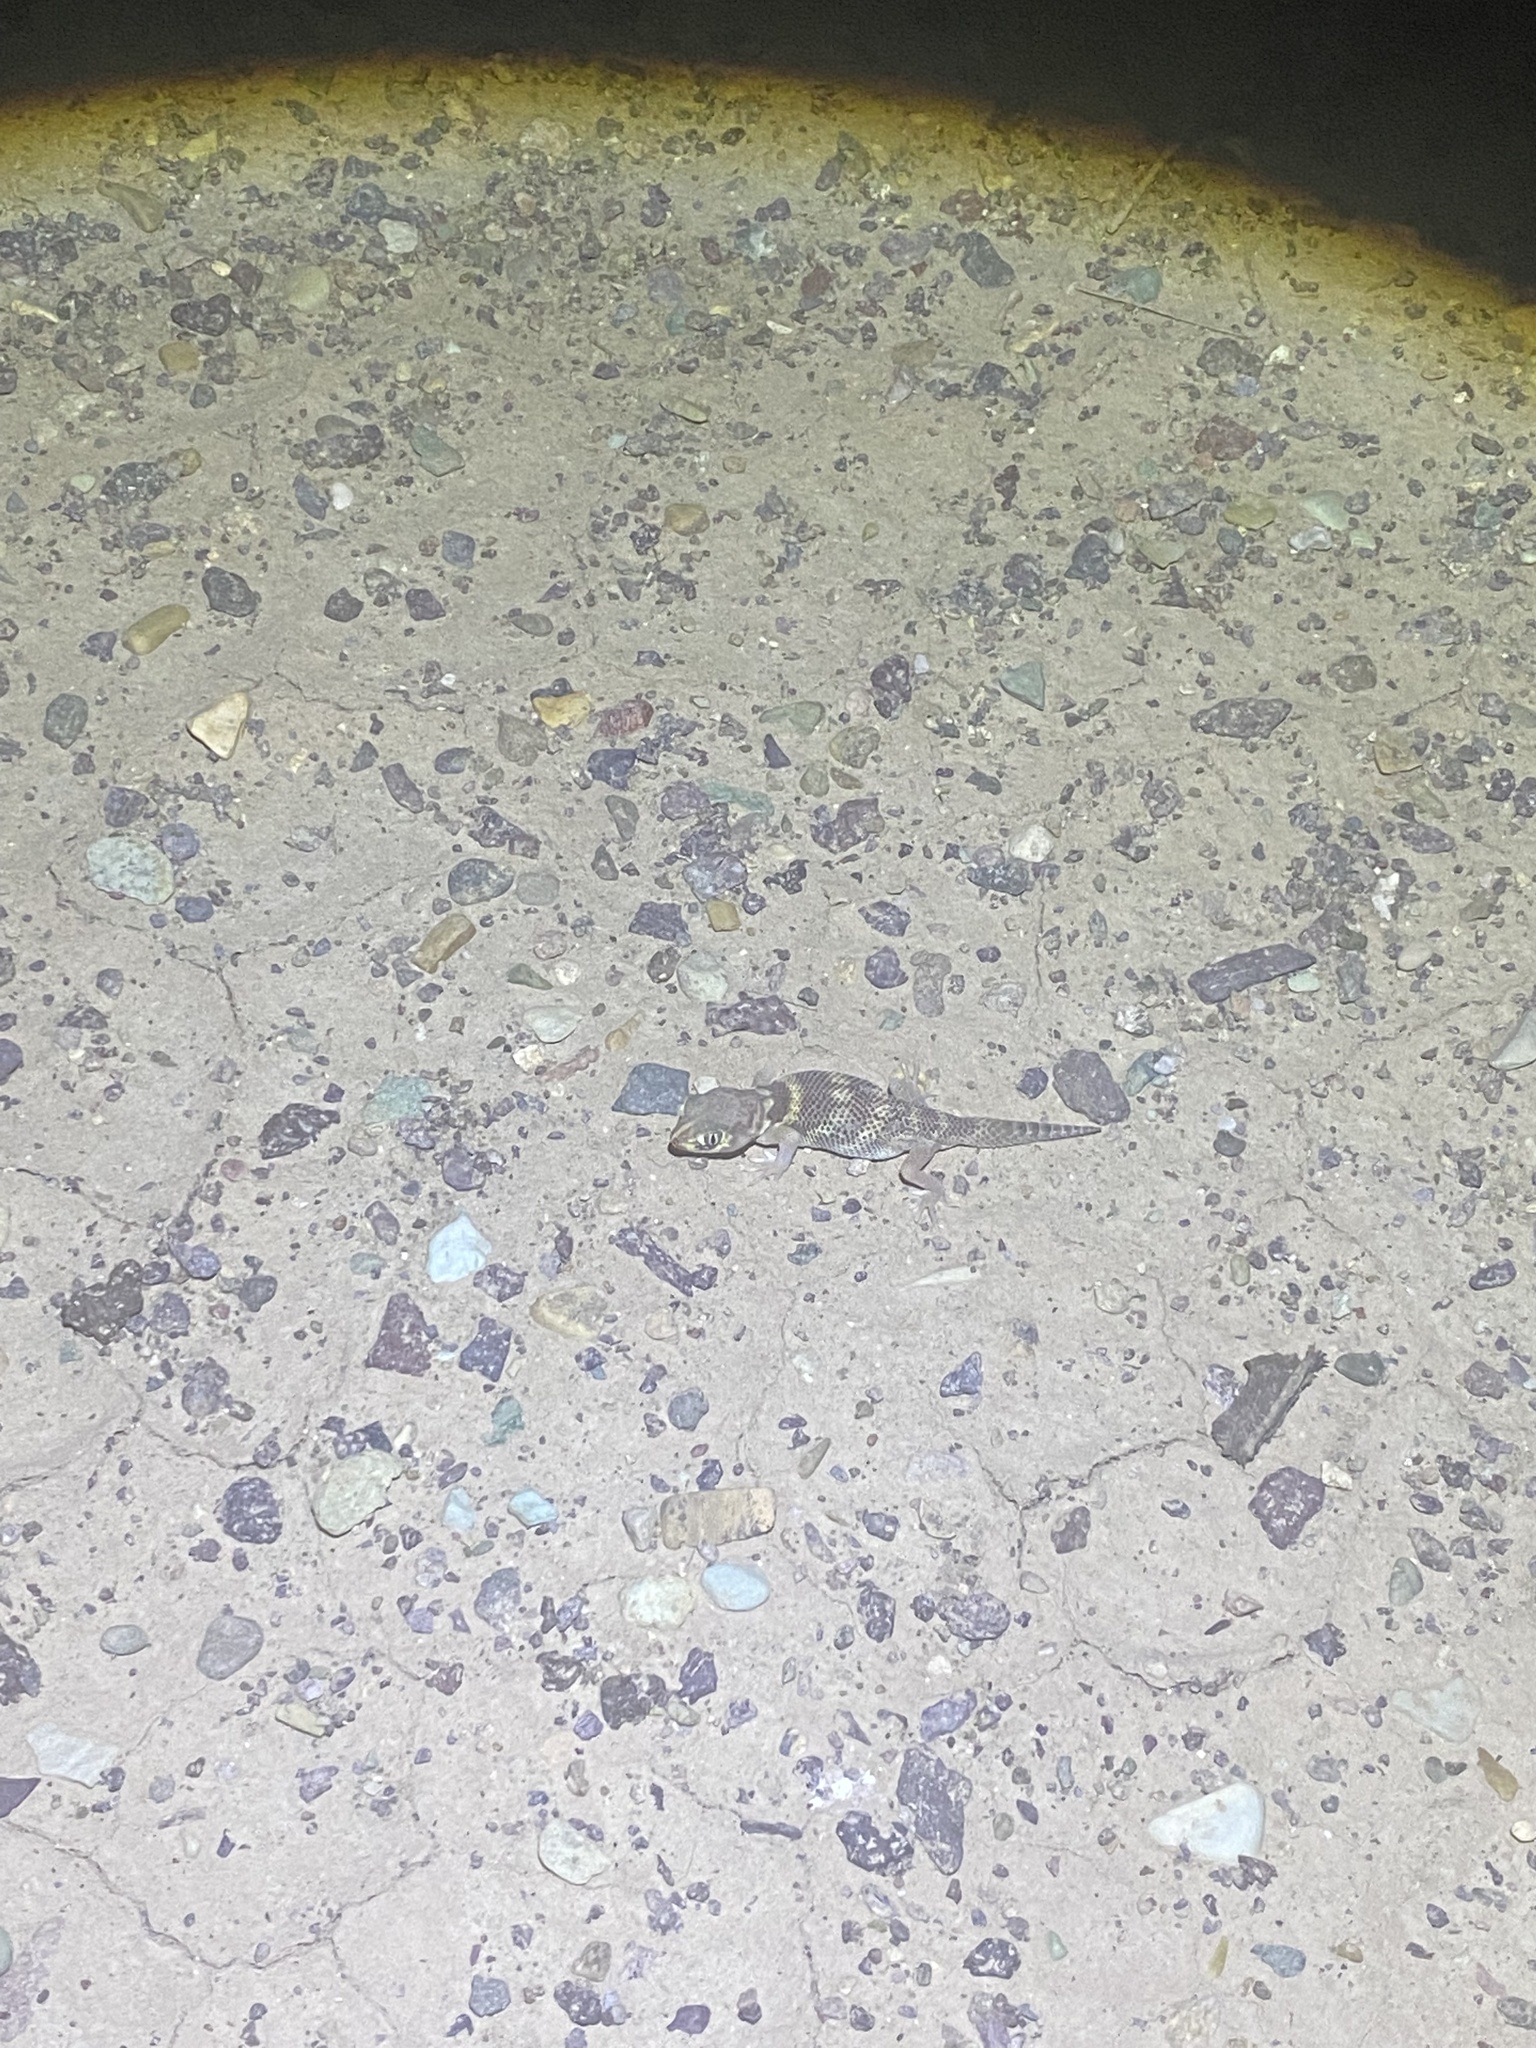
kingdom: Animalia
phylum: Chordata
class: Squamata
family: Sphaerodactylidae
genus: Teratoscincus
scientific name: Teratoscincus bedriagai
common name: Bedriaga's plate-tailed gecko
